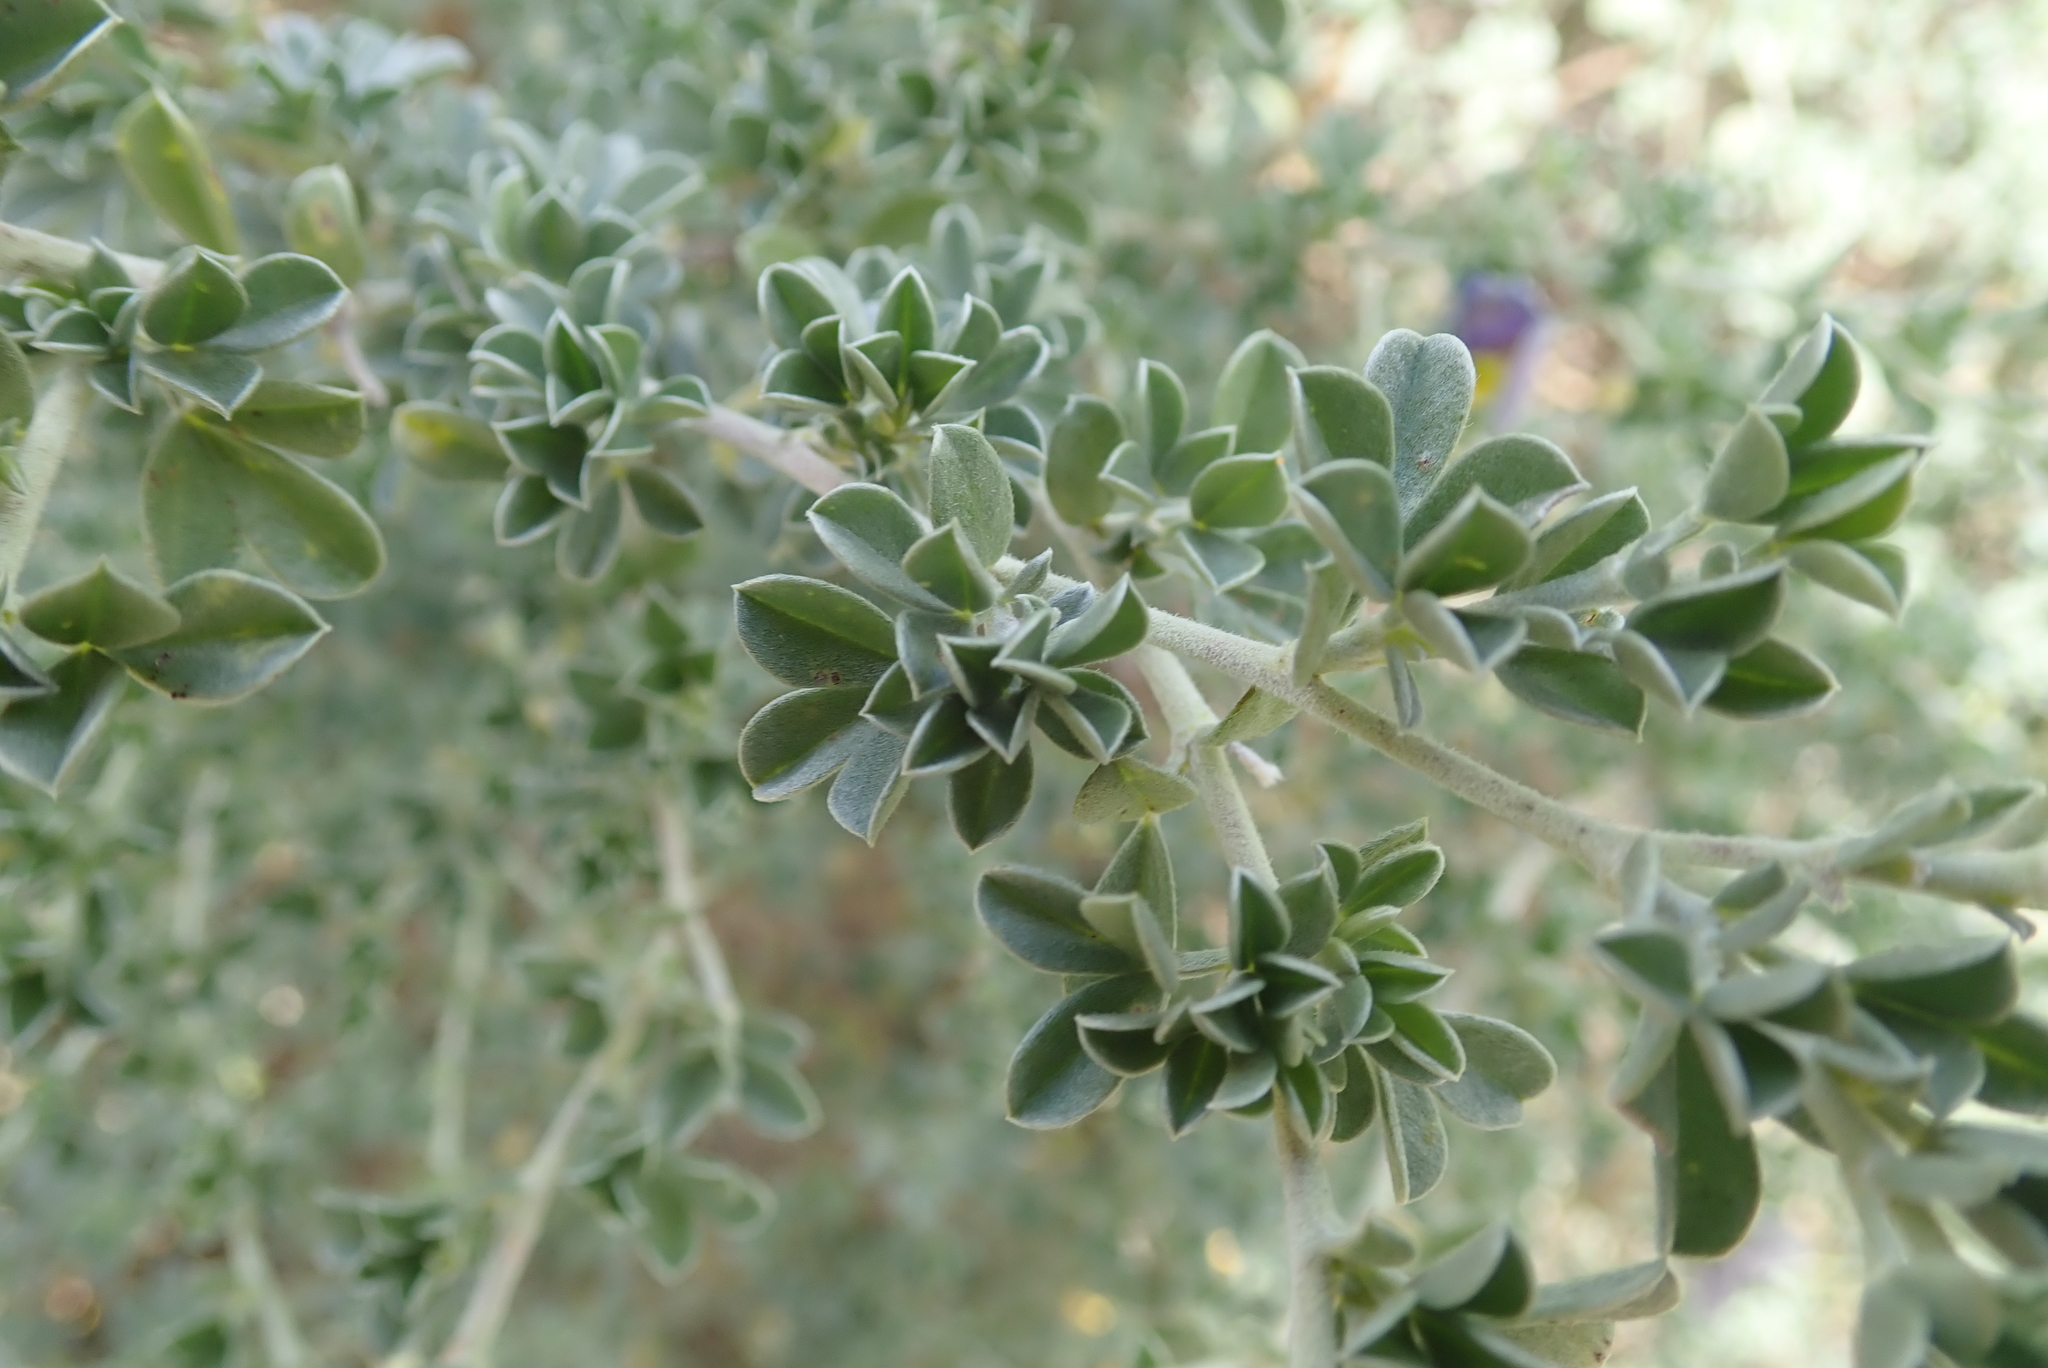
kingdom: Plantae
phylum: Tracheophyta
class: Magnoliopsida
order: Fabales
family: Fabaceae
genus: Lotononis
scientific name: Lotononis sericophylla
